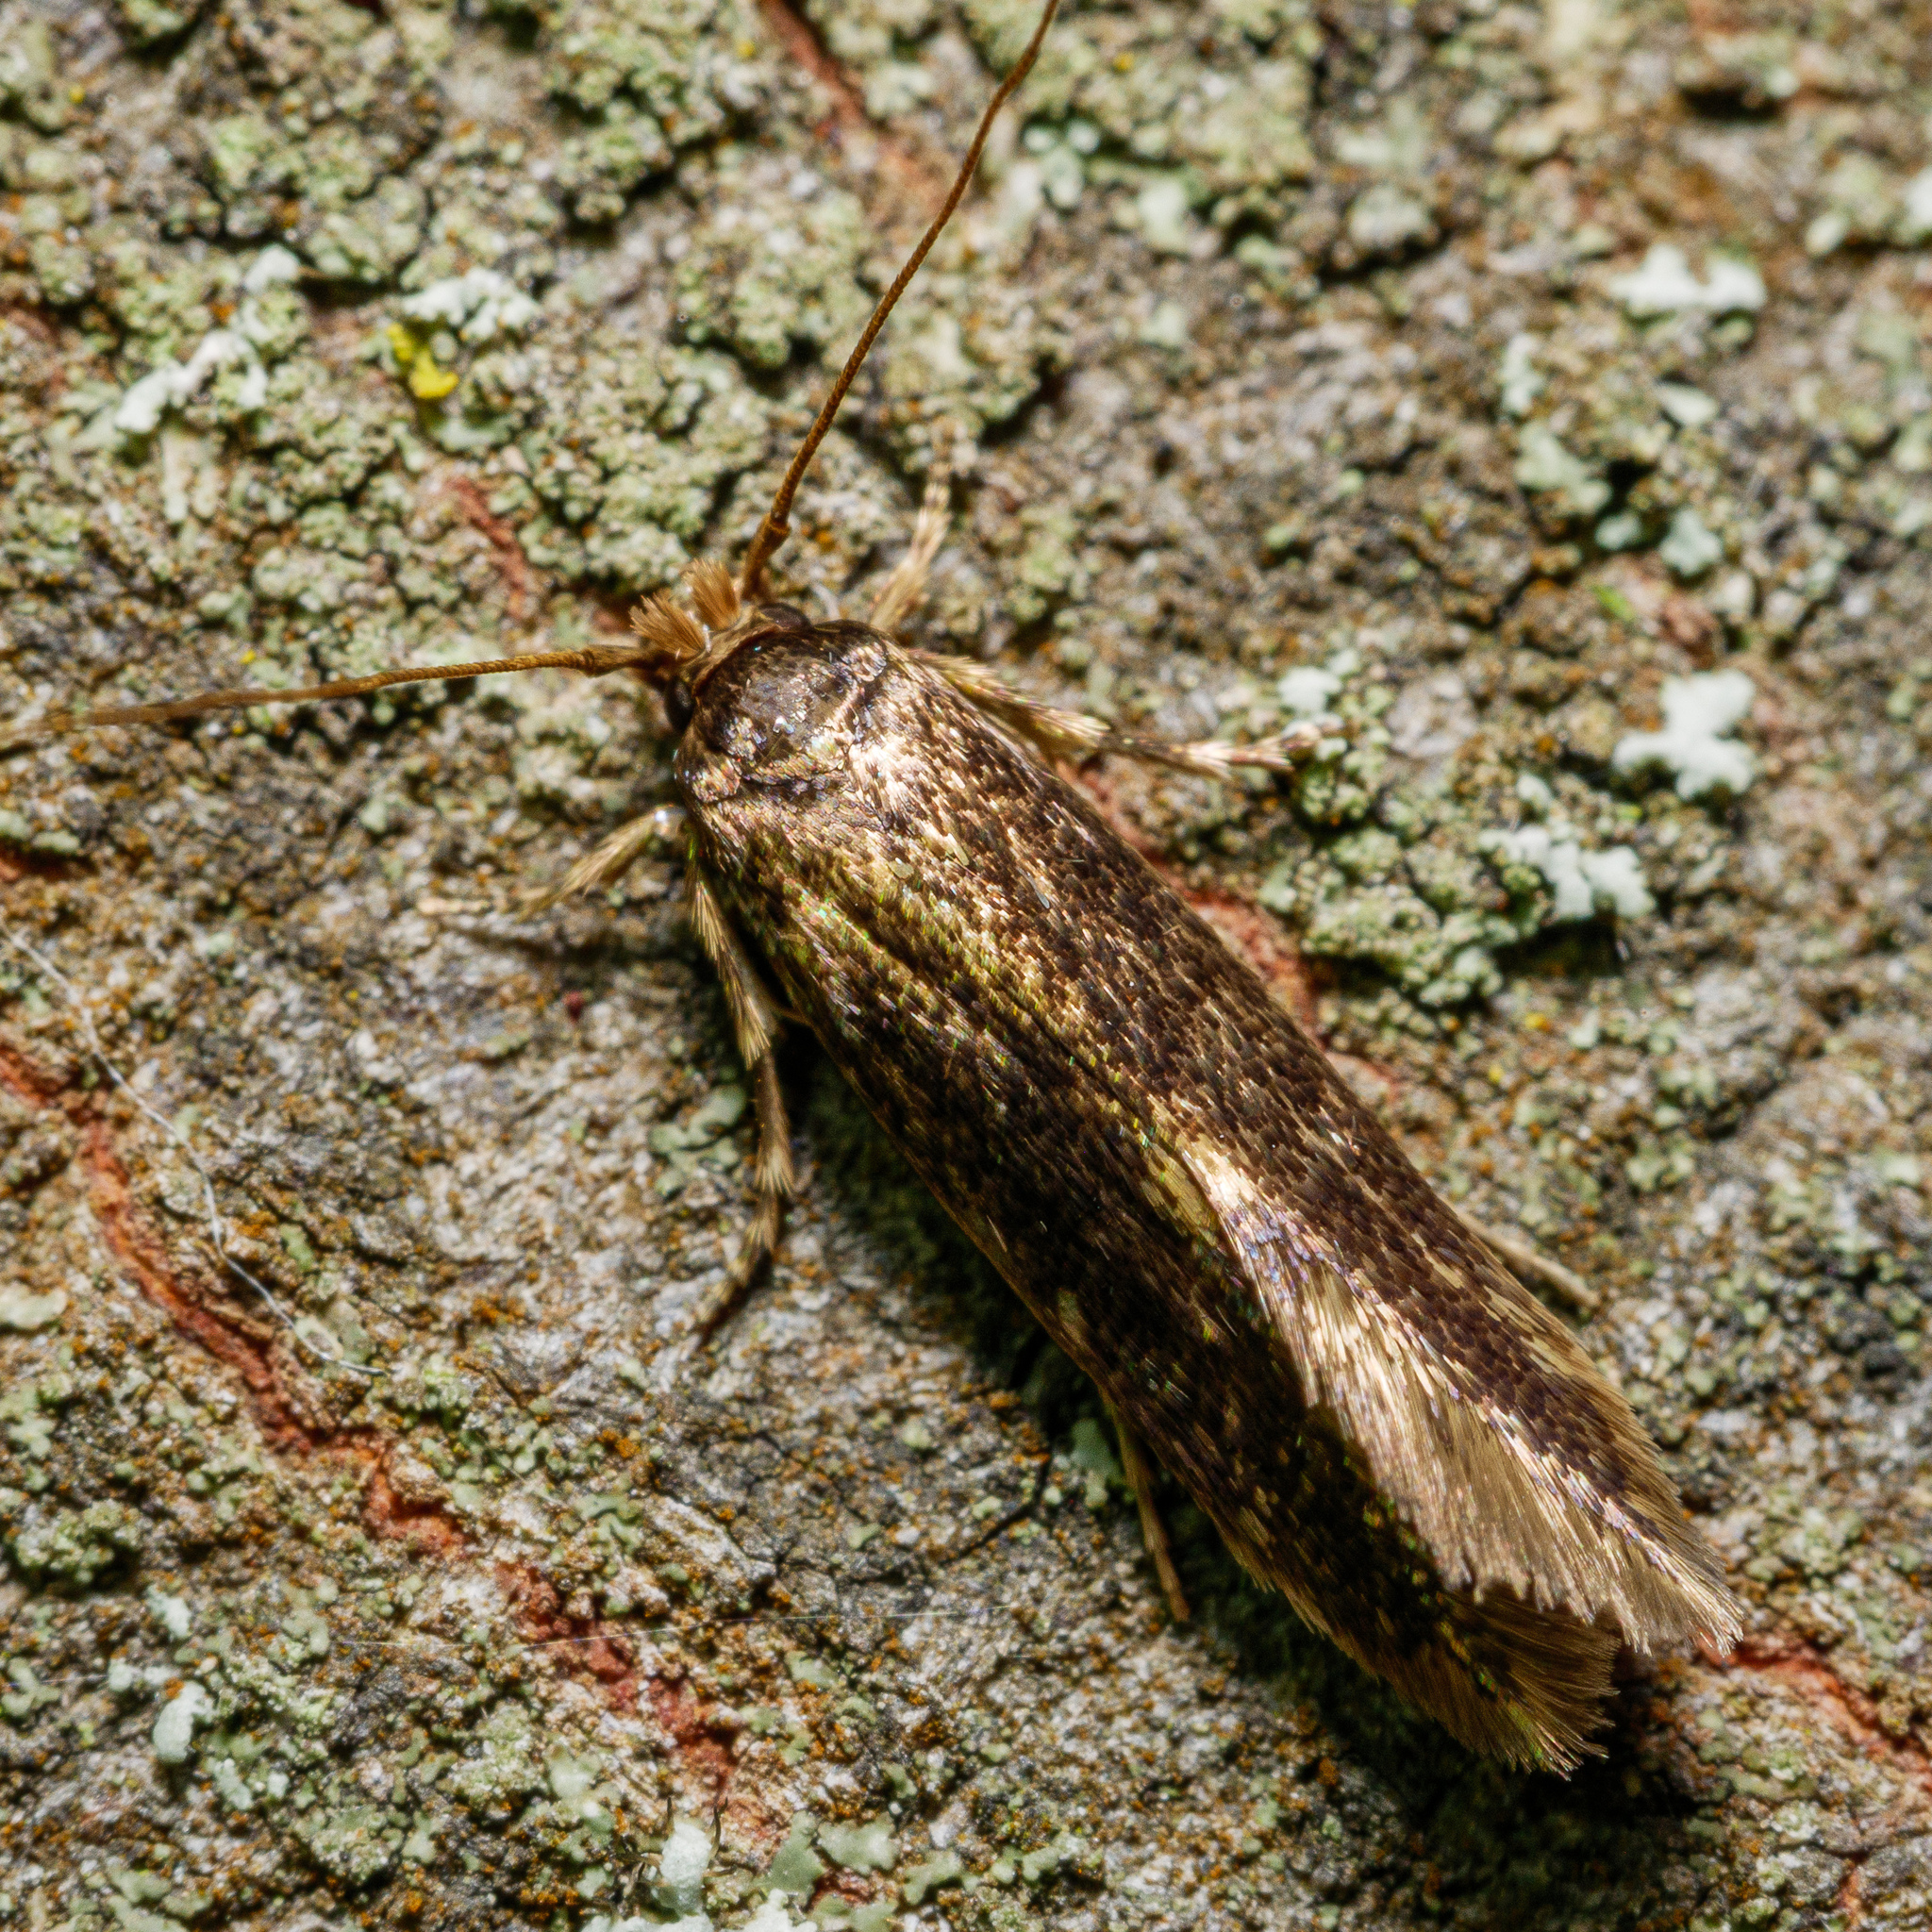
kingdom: Animalia
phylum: Arthropoda
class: Insecta
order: Lepidoptera
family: Tineidae
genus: Opogona
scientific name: Opogona omoscopa
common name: Moth
